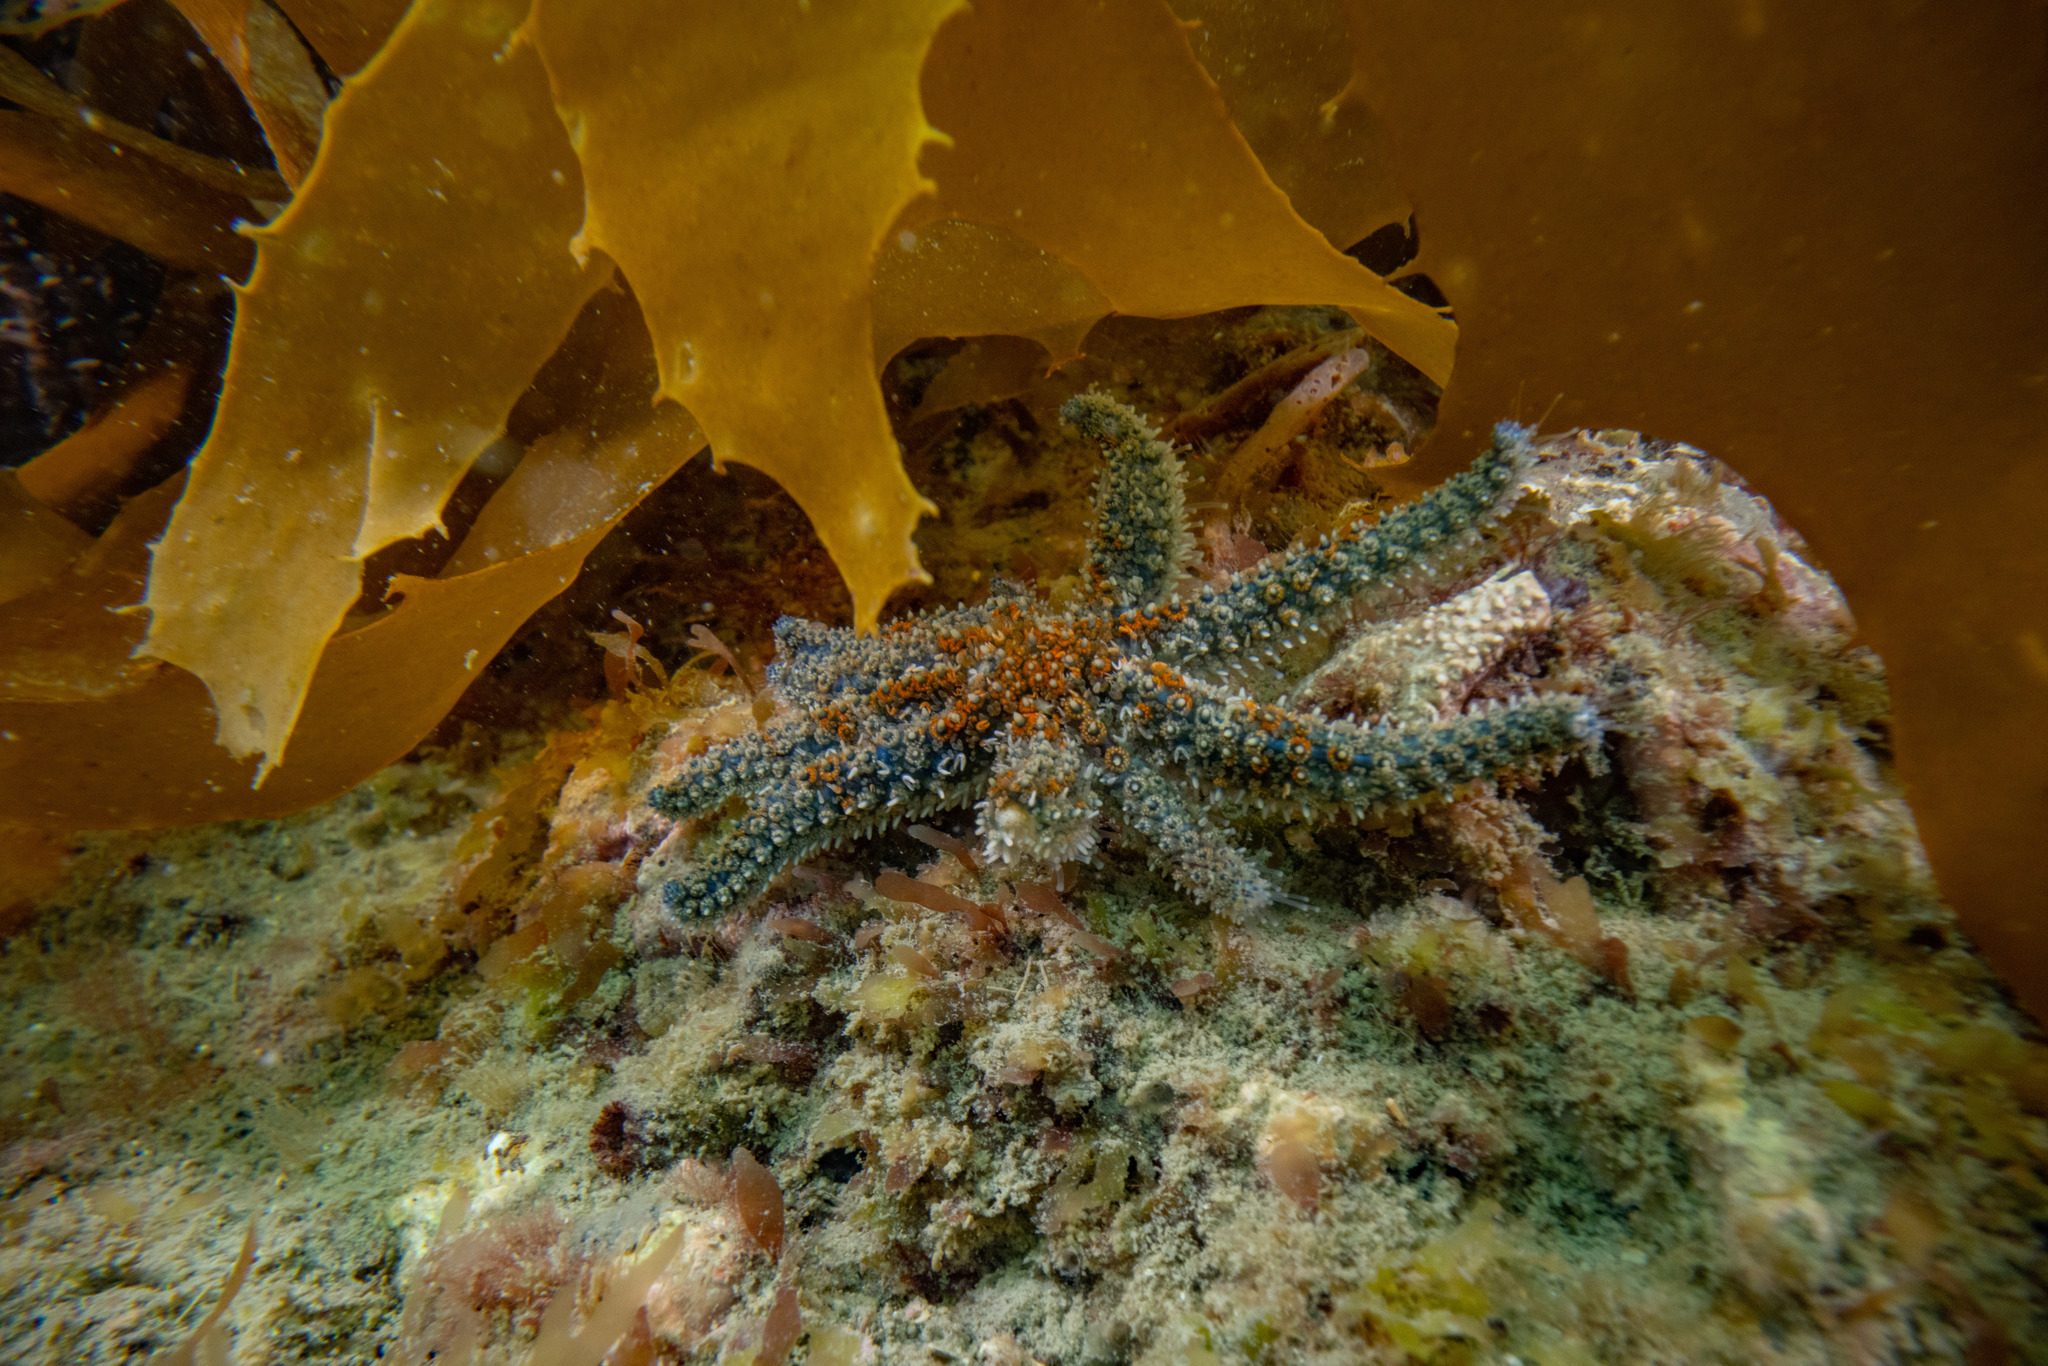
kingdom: Animalia
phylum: Echinodermata
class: Asteroidea
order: Forcipulatida
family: Asteriidae
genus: Coscinasterias
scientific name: Coscinasterias muricata
